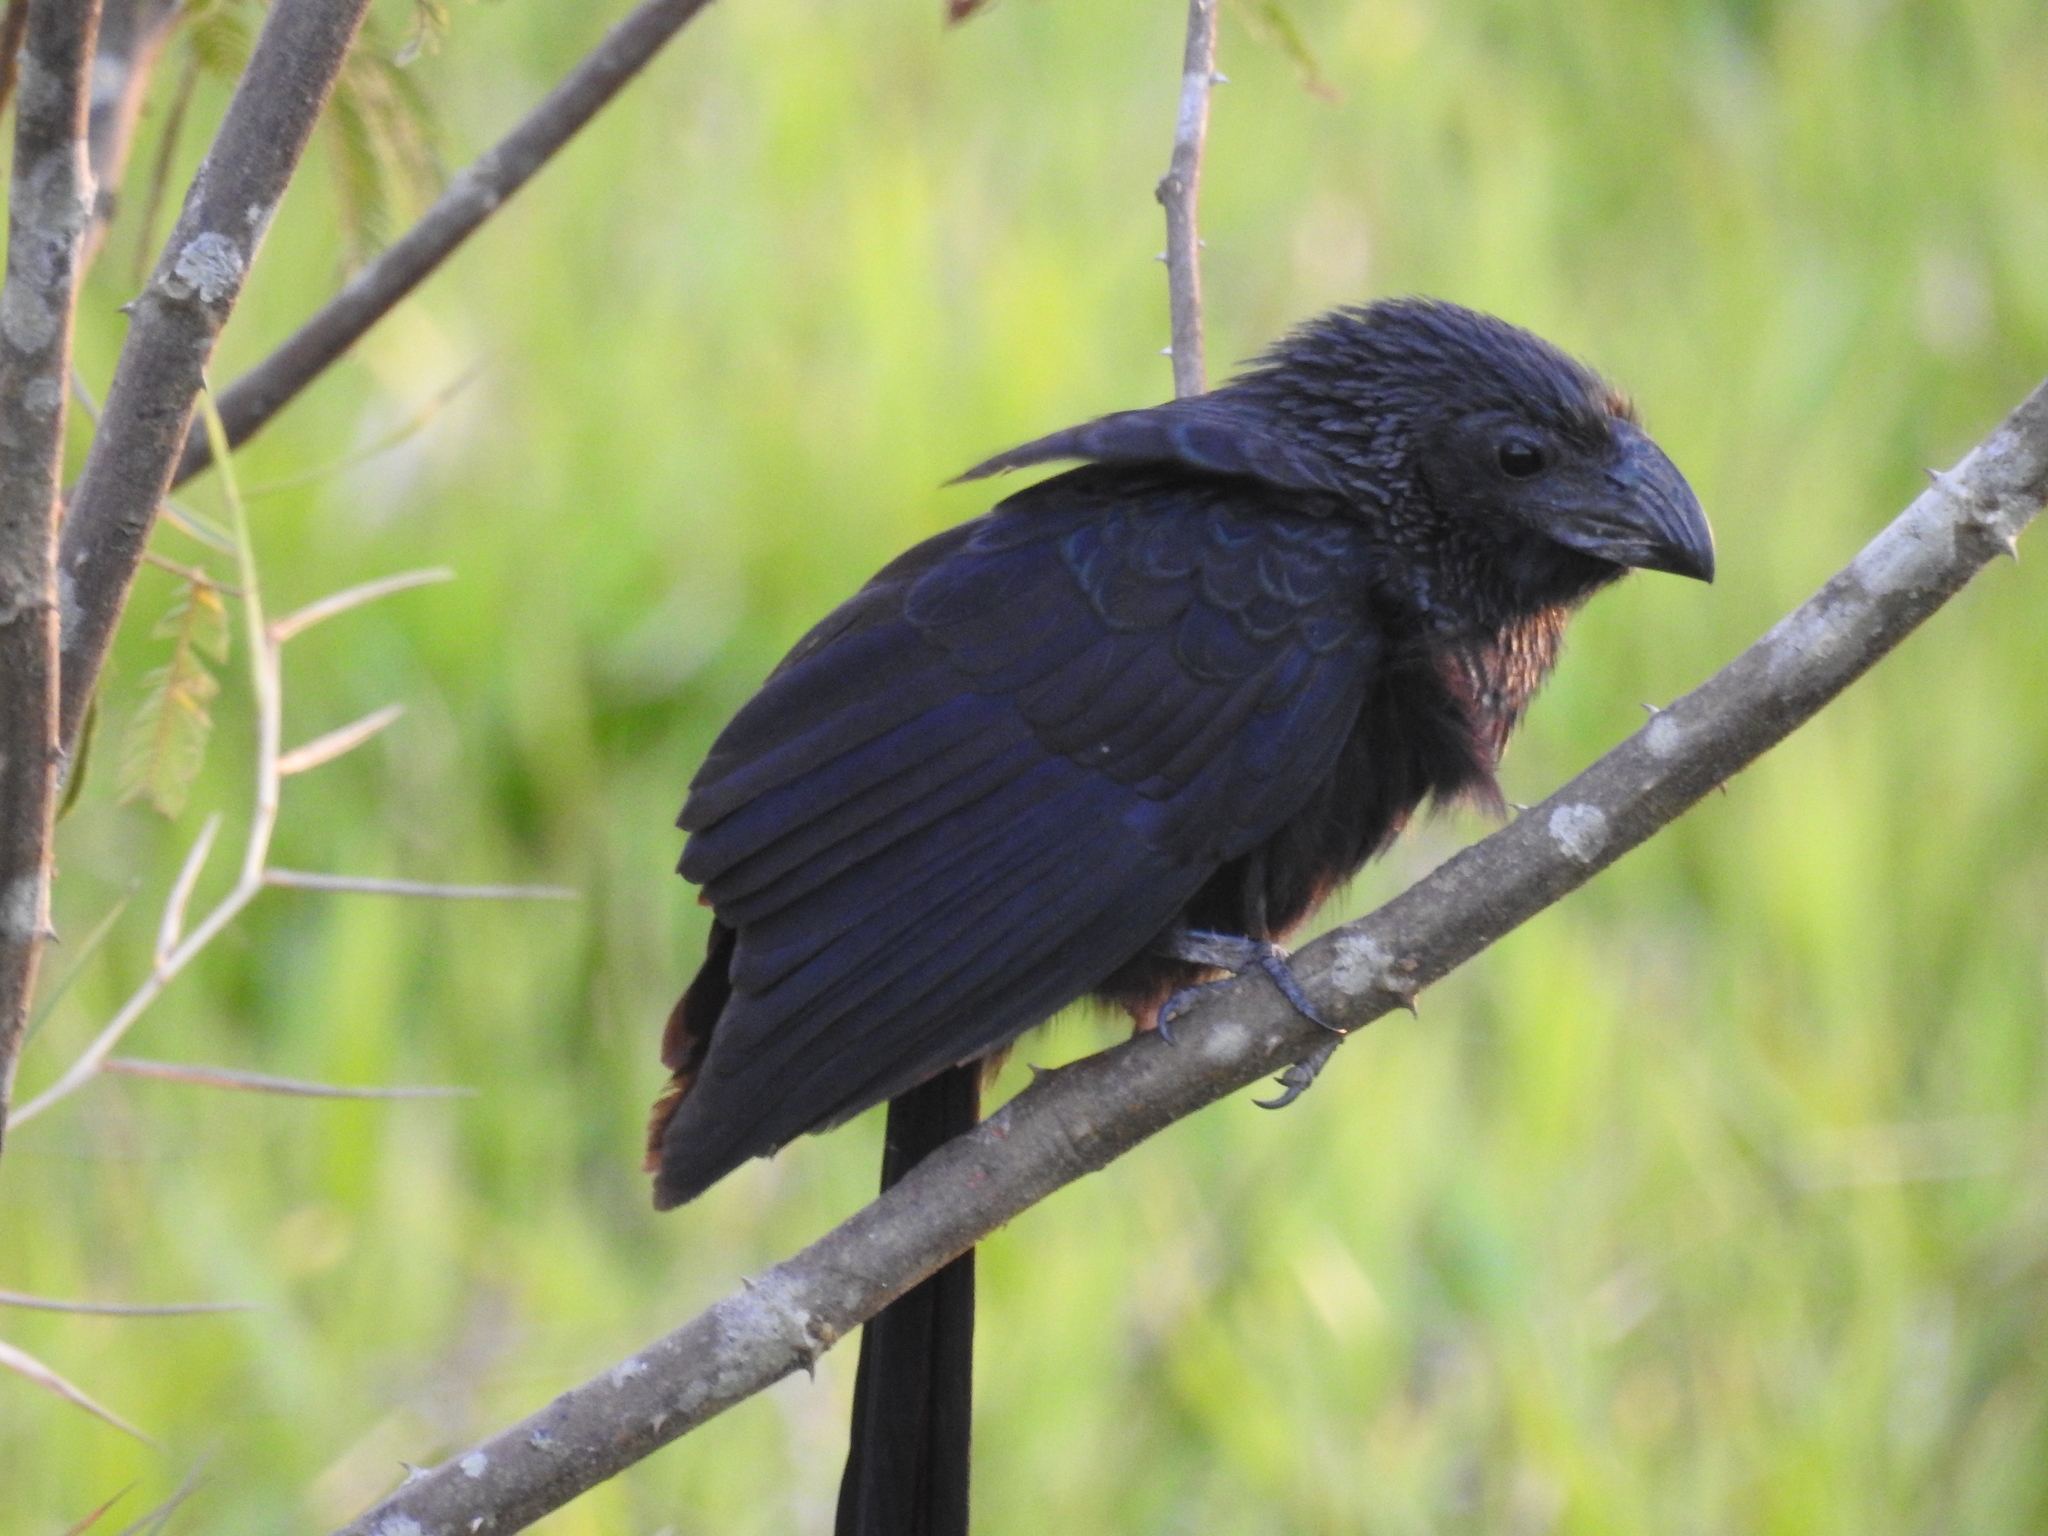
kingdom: Animalia
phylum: Chordata
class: Aves
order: Cuculiformes
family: Cuculidae
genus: Crotophaga
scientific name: Crotophaga sulcirostris
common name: Groove-billed ani
